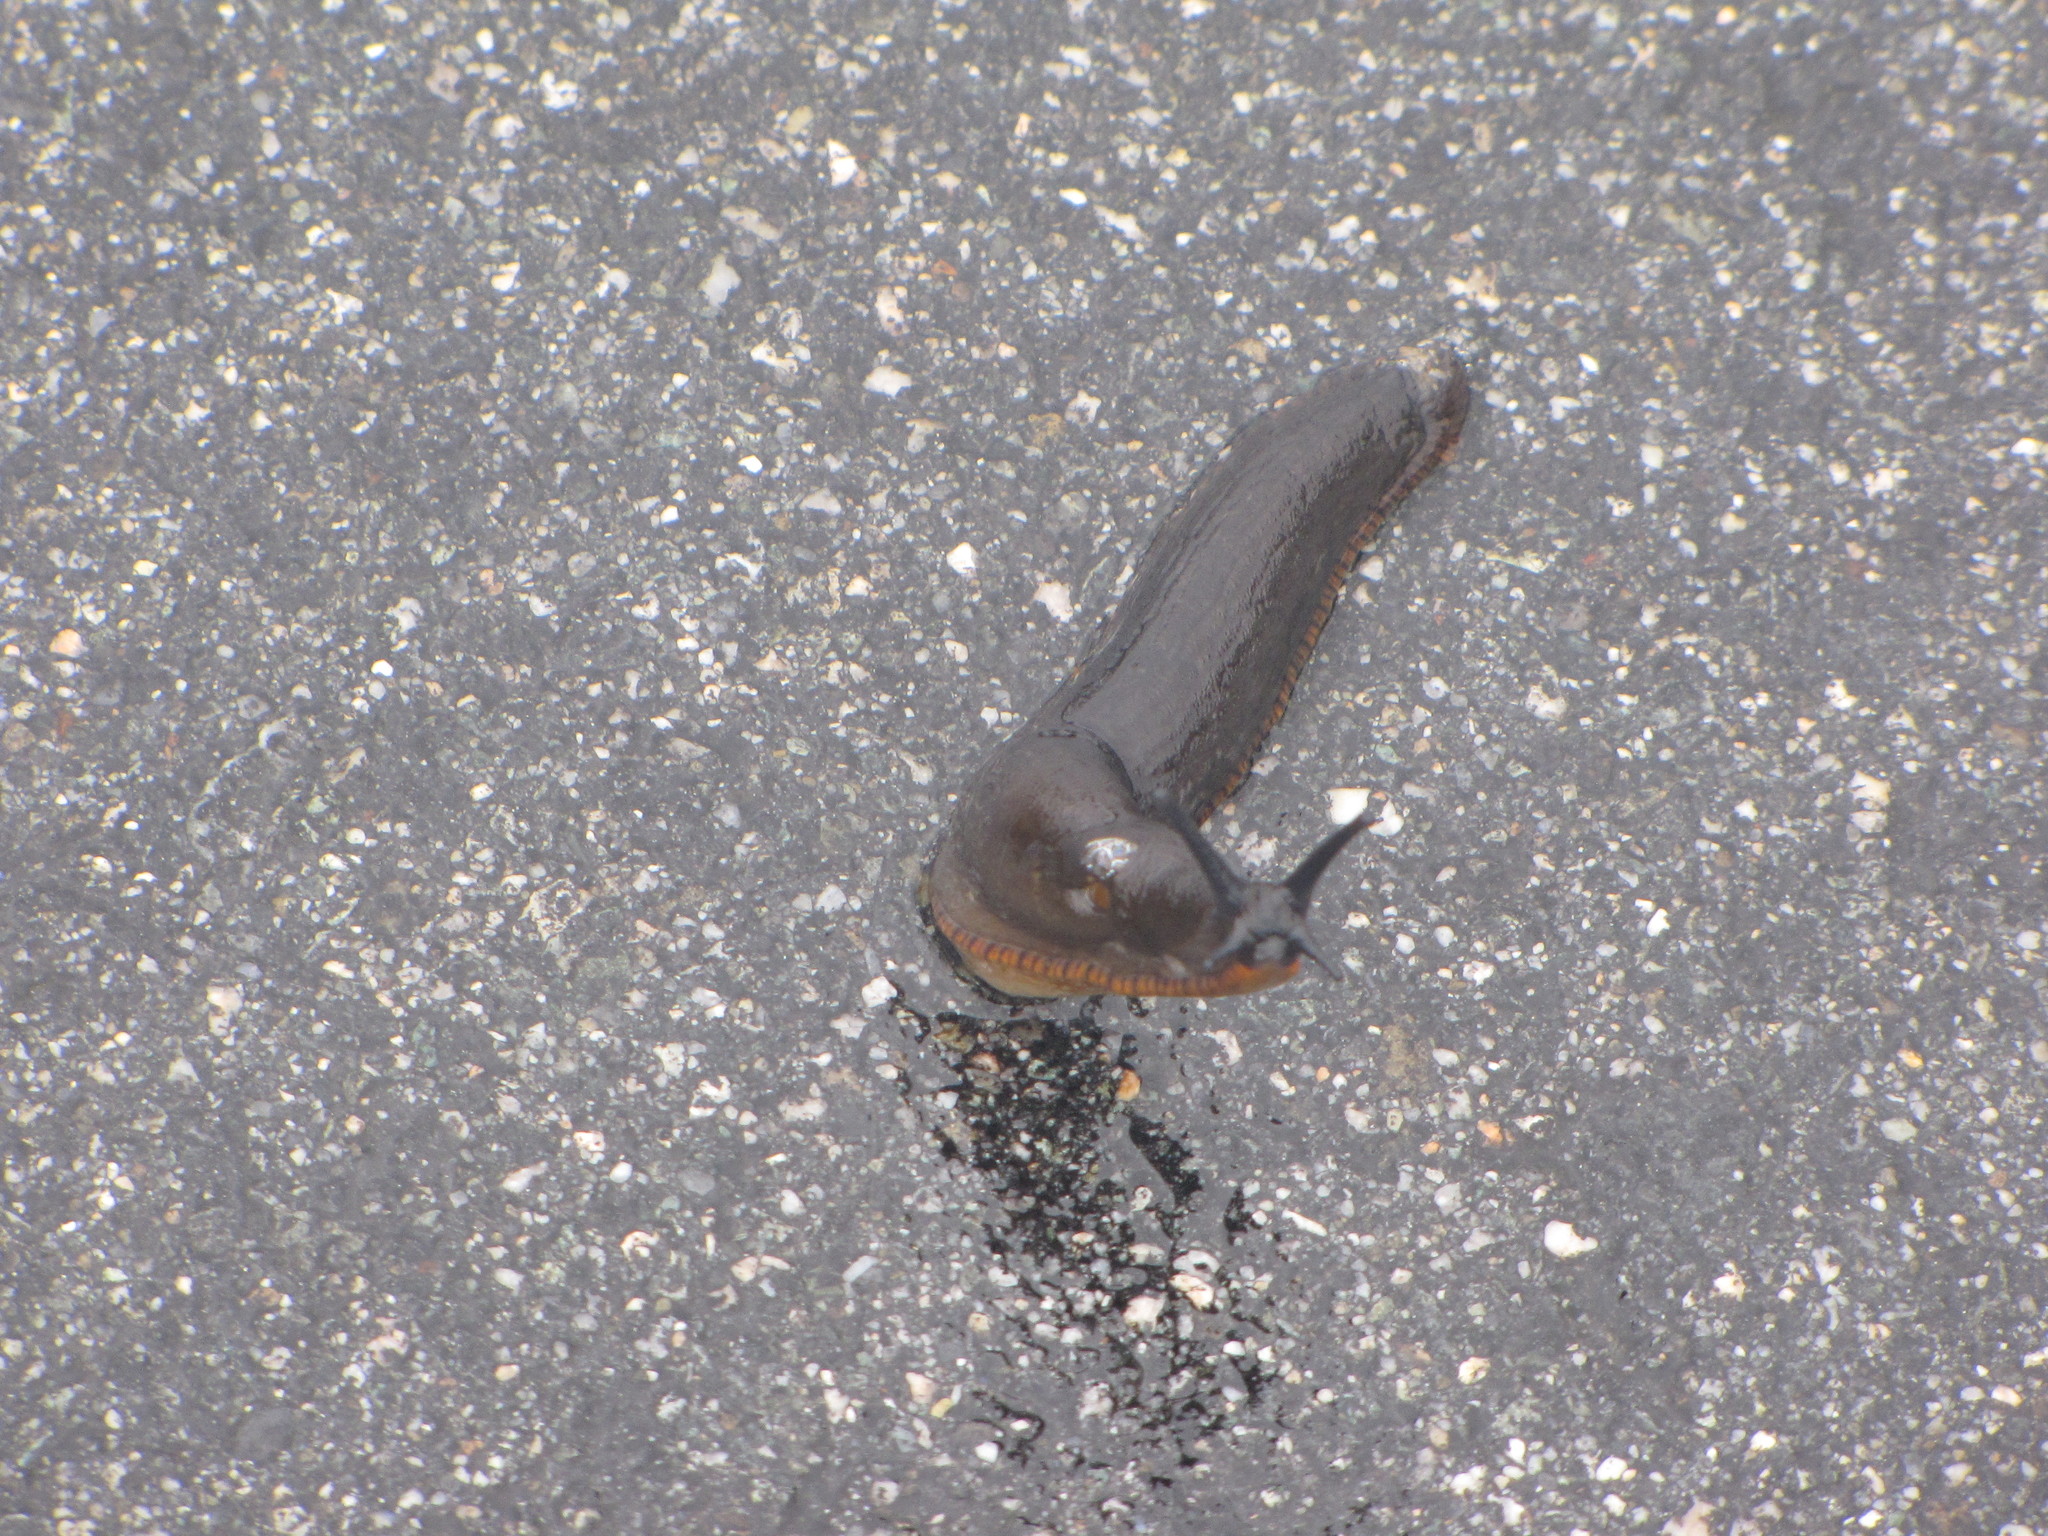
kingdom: Animalia
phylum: Mollusca
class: Gastropoda
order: Stylommatophora
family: Arionidae
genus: Arion
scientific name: Arion rufus
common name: Chocolate arion
